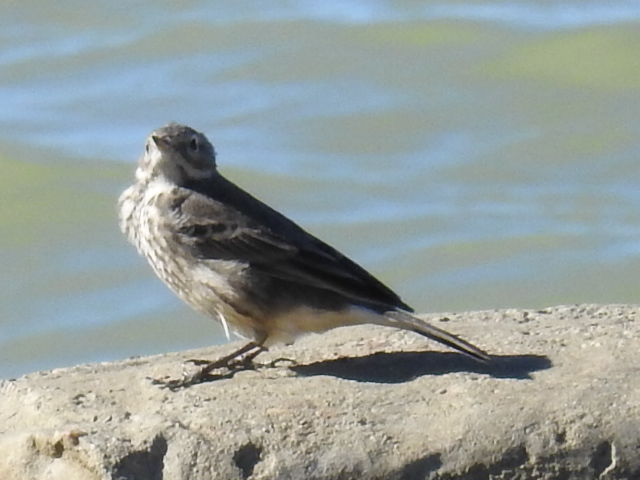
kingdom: Animalia
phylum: Chordata
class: Aves
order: Passeriformes
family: Motacillidae
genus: Anthus
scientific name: Anthus rubescens
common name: Buff-bellied pipit
